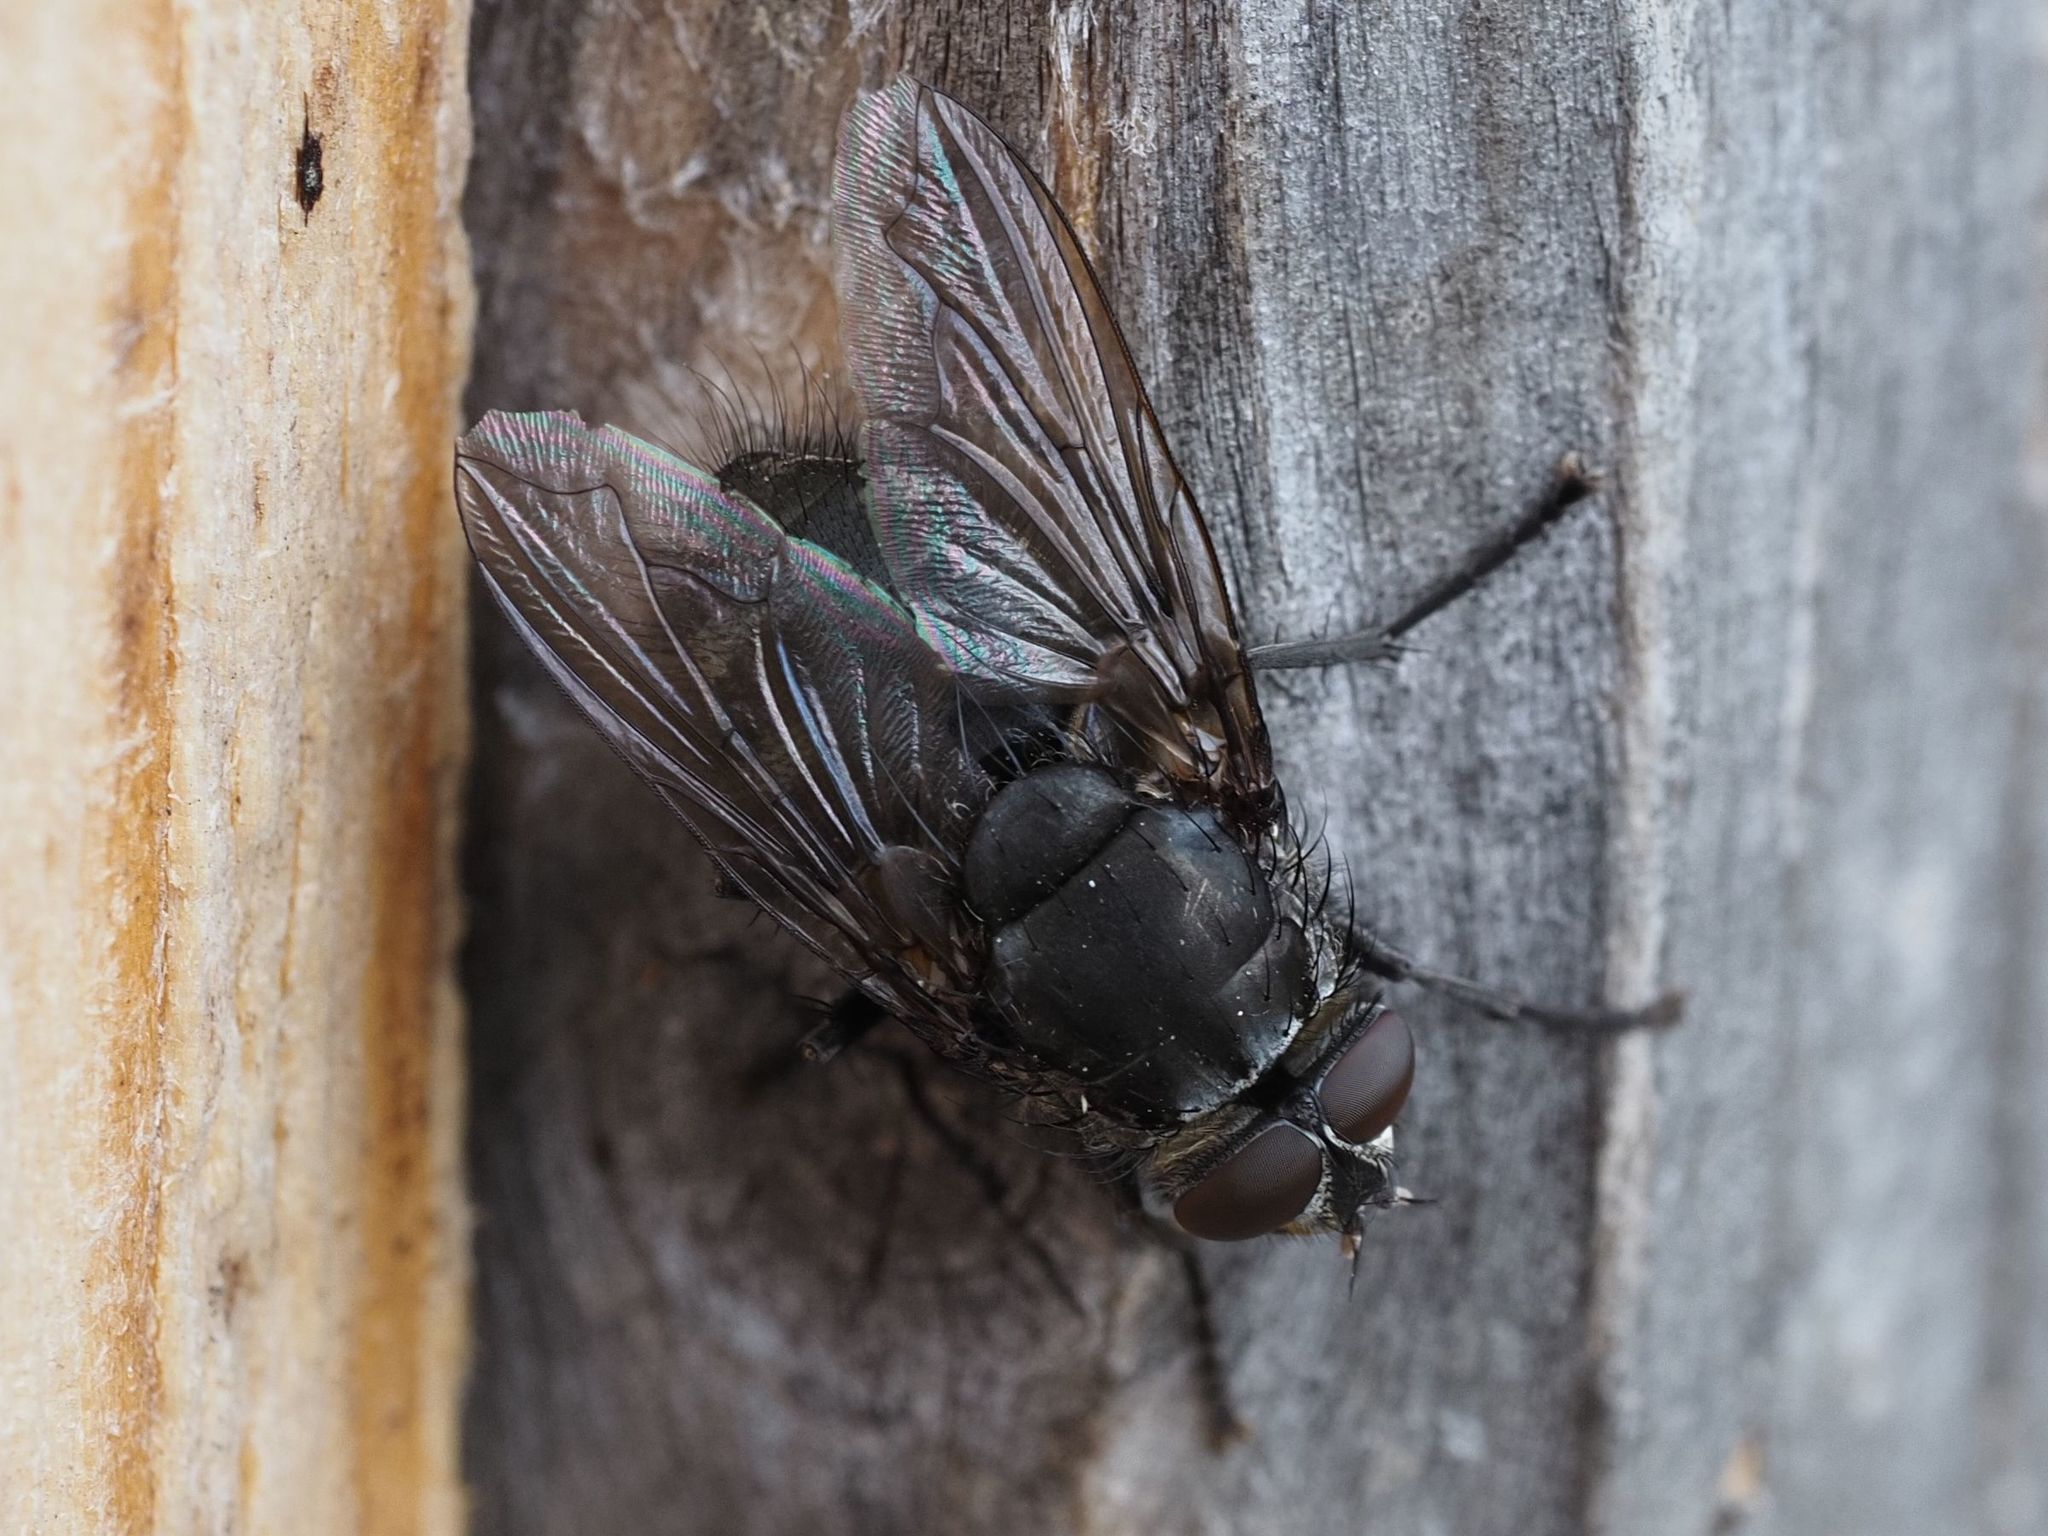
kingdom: Animalia
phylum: Arthropoda
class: Insecta
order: Diptera
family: Polleniidae
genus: Pollenia
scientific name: Pollenia vagabunda
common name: Vagabund cluster fly
